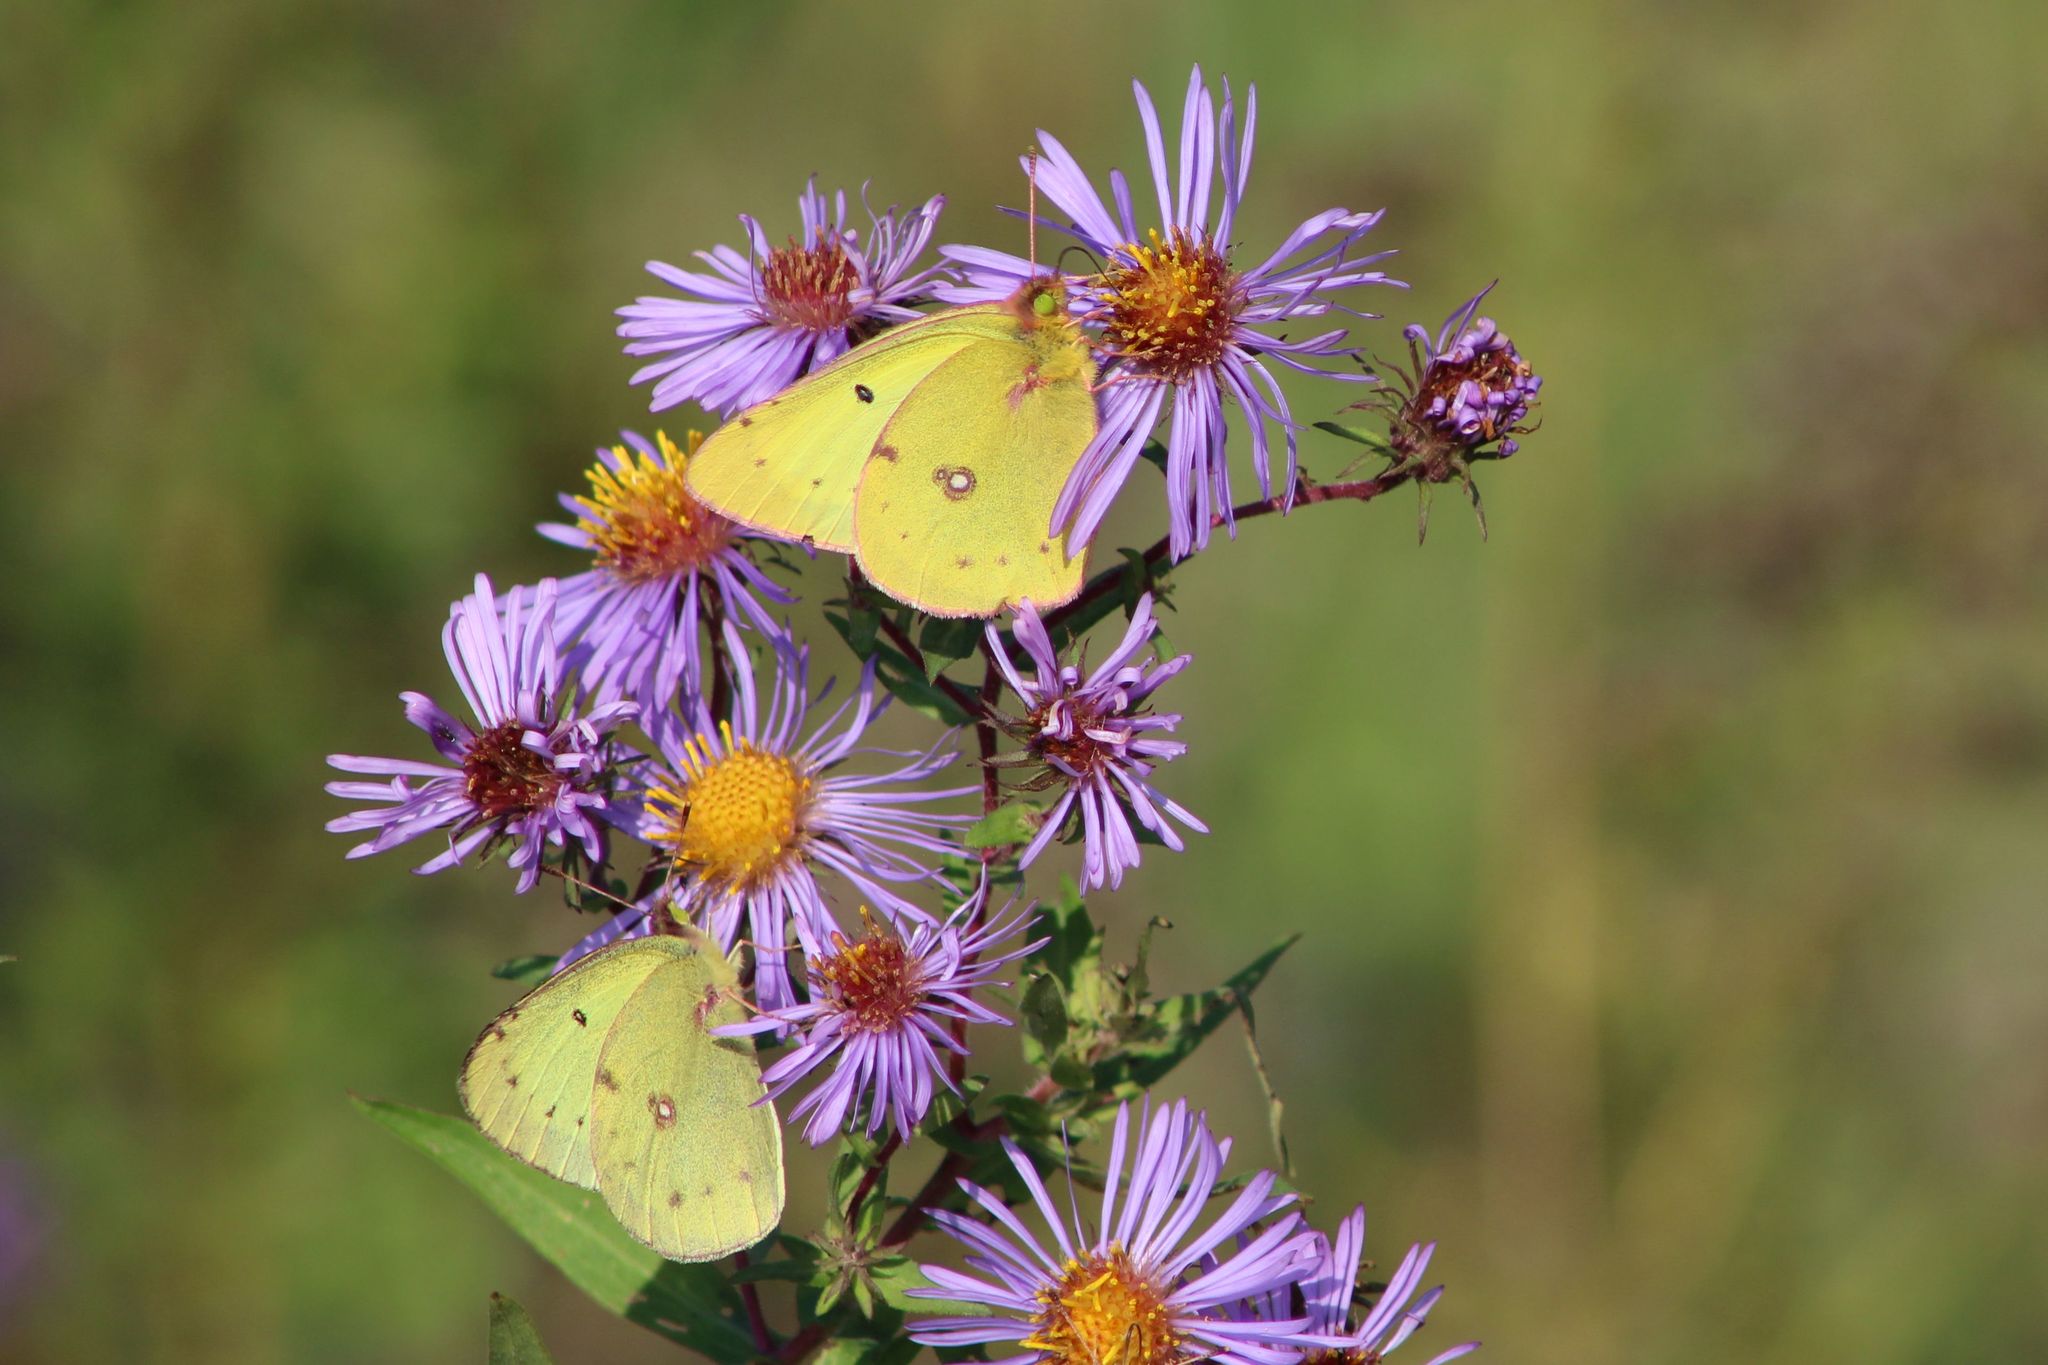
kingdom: Animalia
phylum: Arthropoda
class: Insecta
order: Lepidoptera
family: Pieridae
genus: Colias
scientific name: Colias philodice
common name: Clouded sulphur
